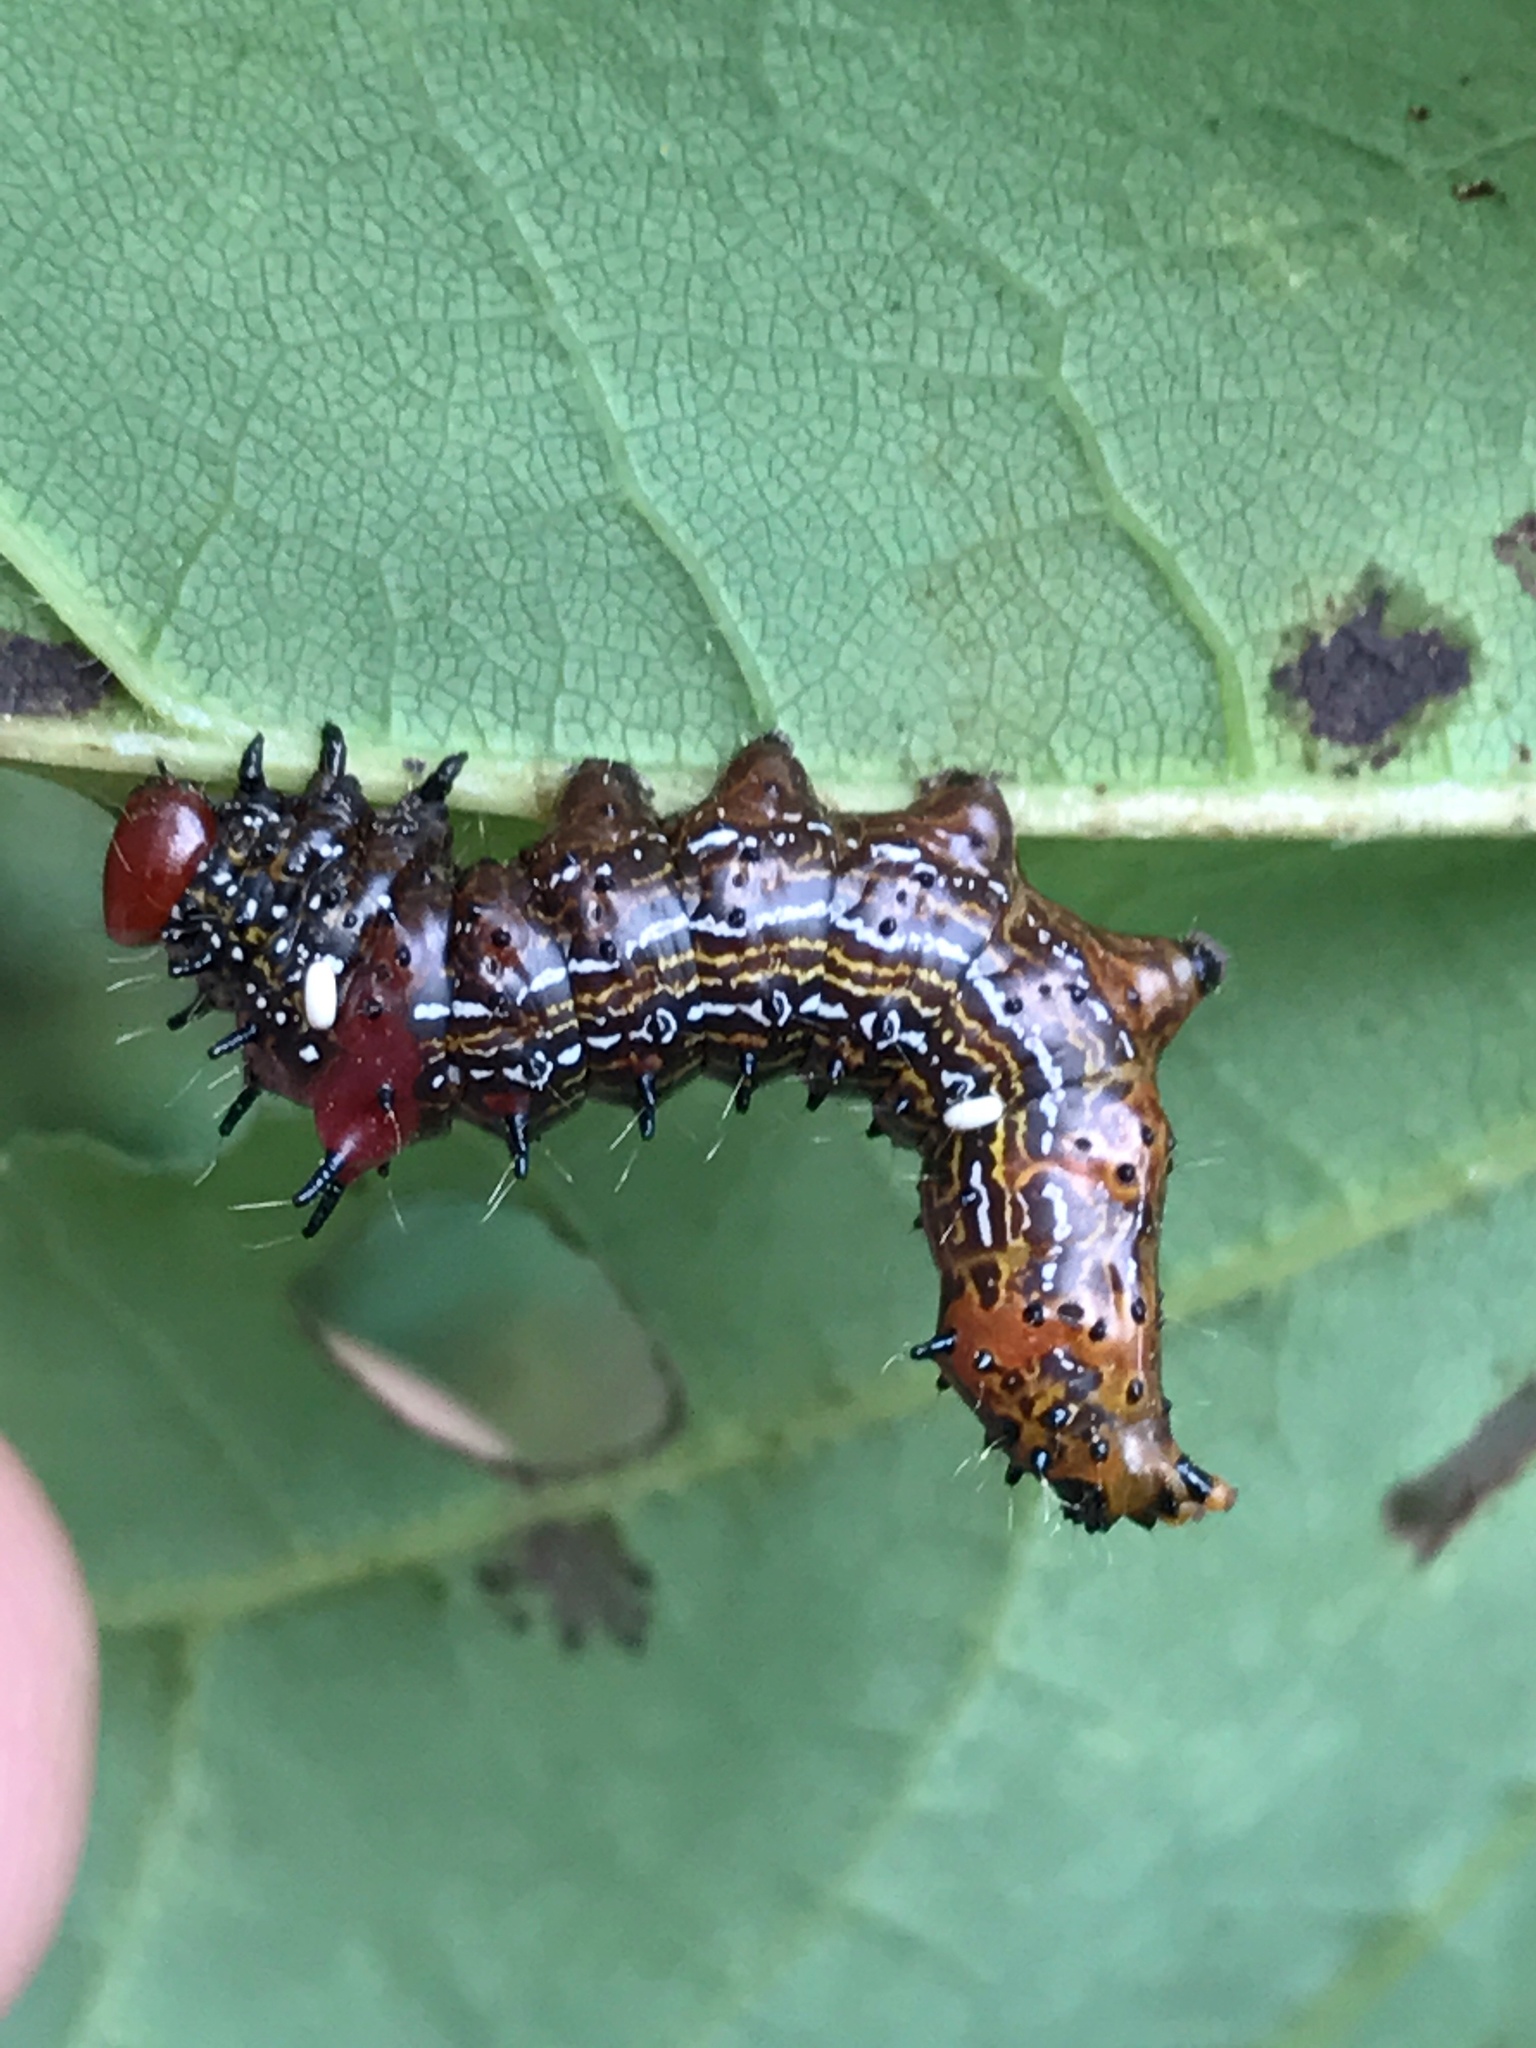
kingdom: Animalia
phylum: Arthropoda
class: Insecta
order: Lepidoptera
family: Notodontidae
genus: Schizura
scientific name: Schizura
